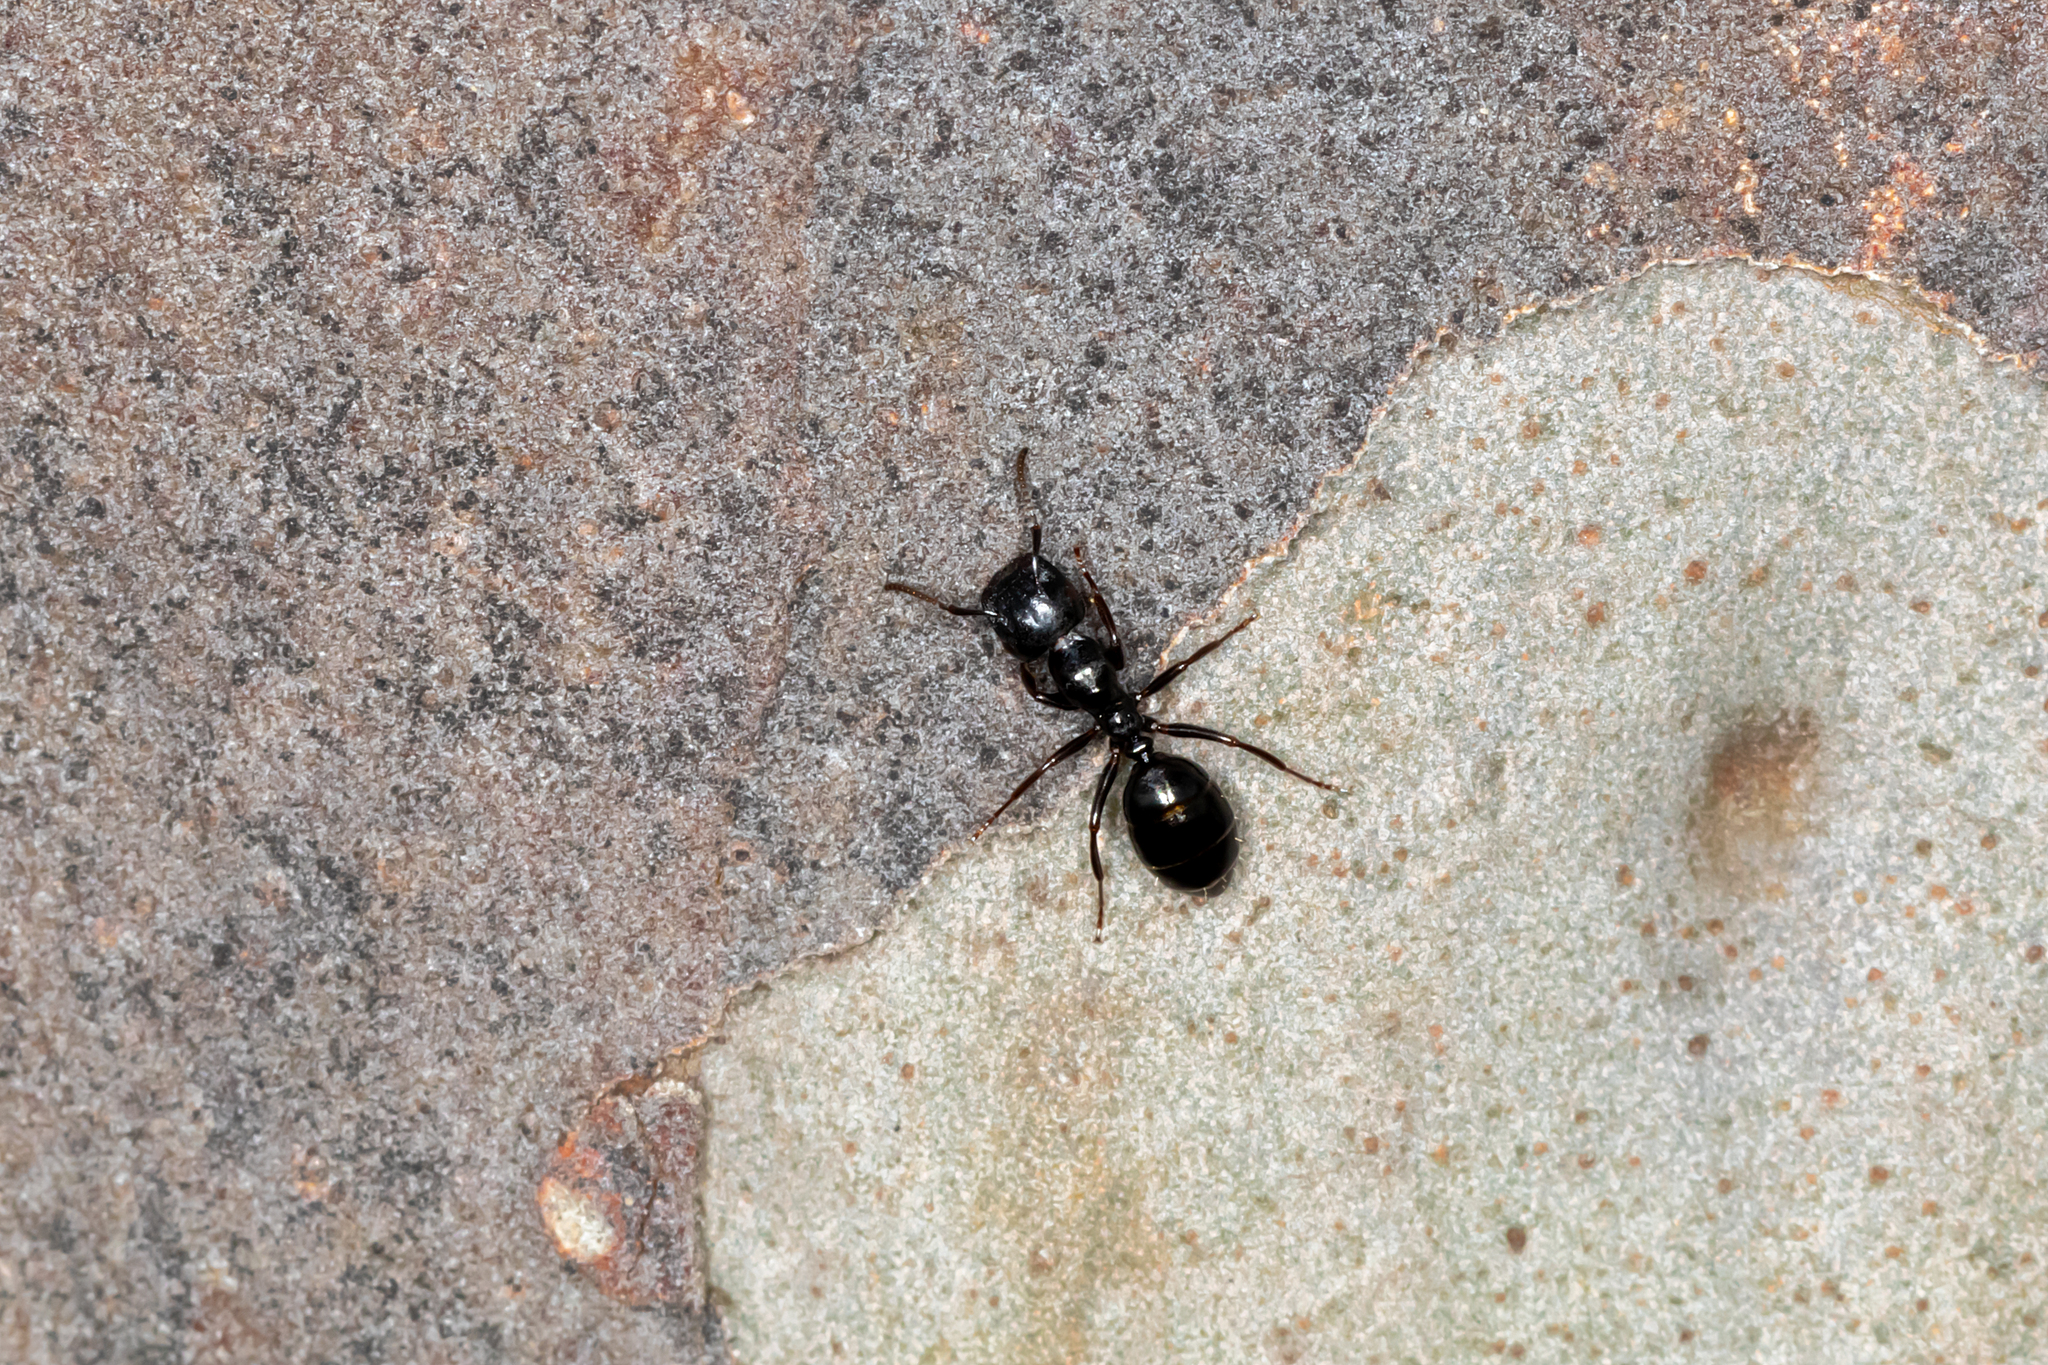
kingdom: Animalia
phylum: Arthropoda
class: Insecta
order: Hymenoptera
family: Formicidae
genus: Colobopsis
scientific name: Colobopsis gasseri
